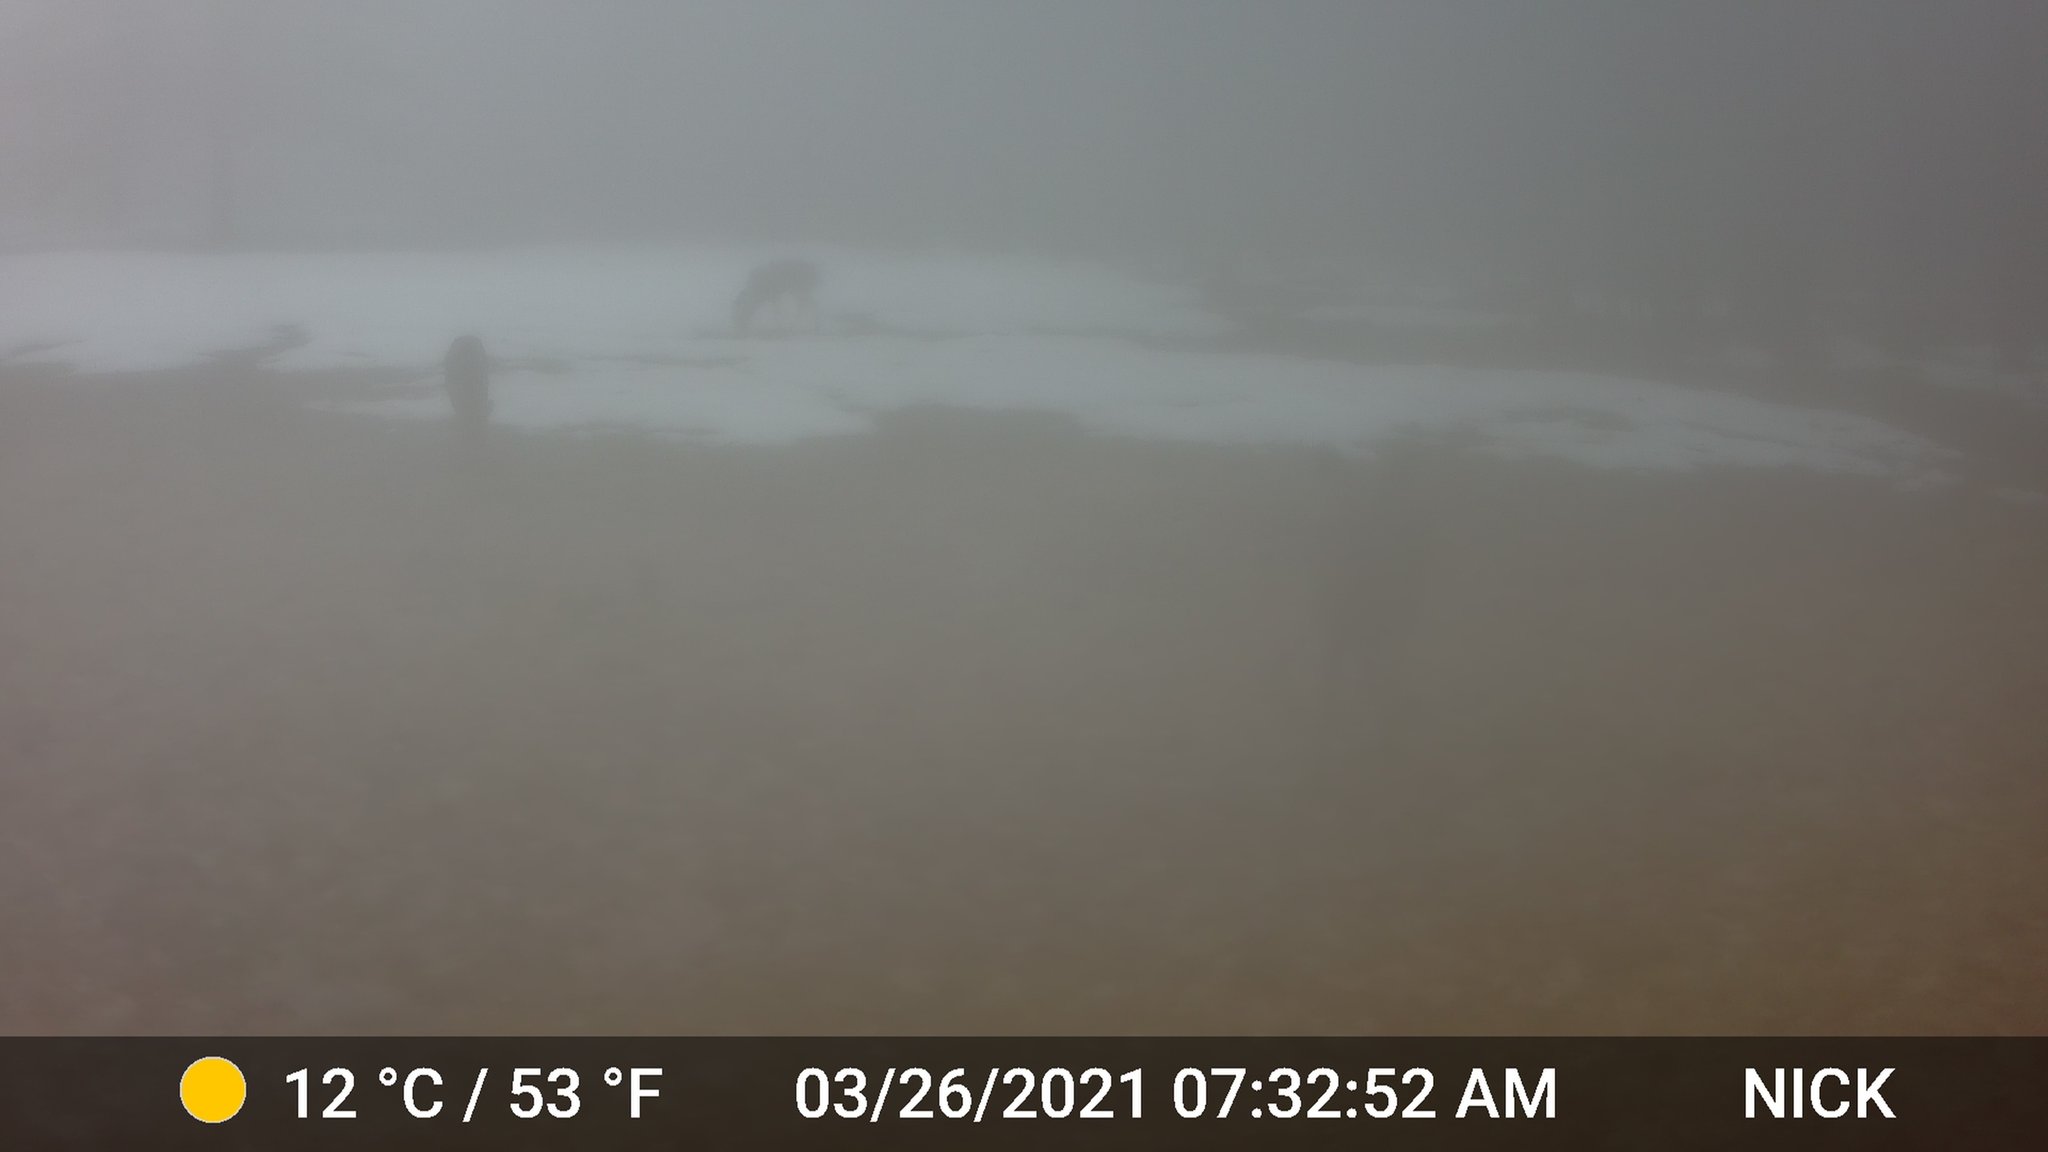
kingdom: Animalia
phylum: Chordata
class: Mammalia
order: Artiodactyla
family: Cervidae
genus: Odocoileus
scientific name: Odocoileus virginianus
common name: White-tailed deer
